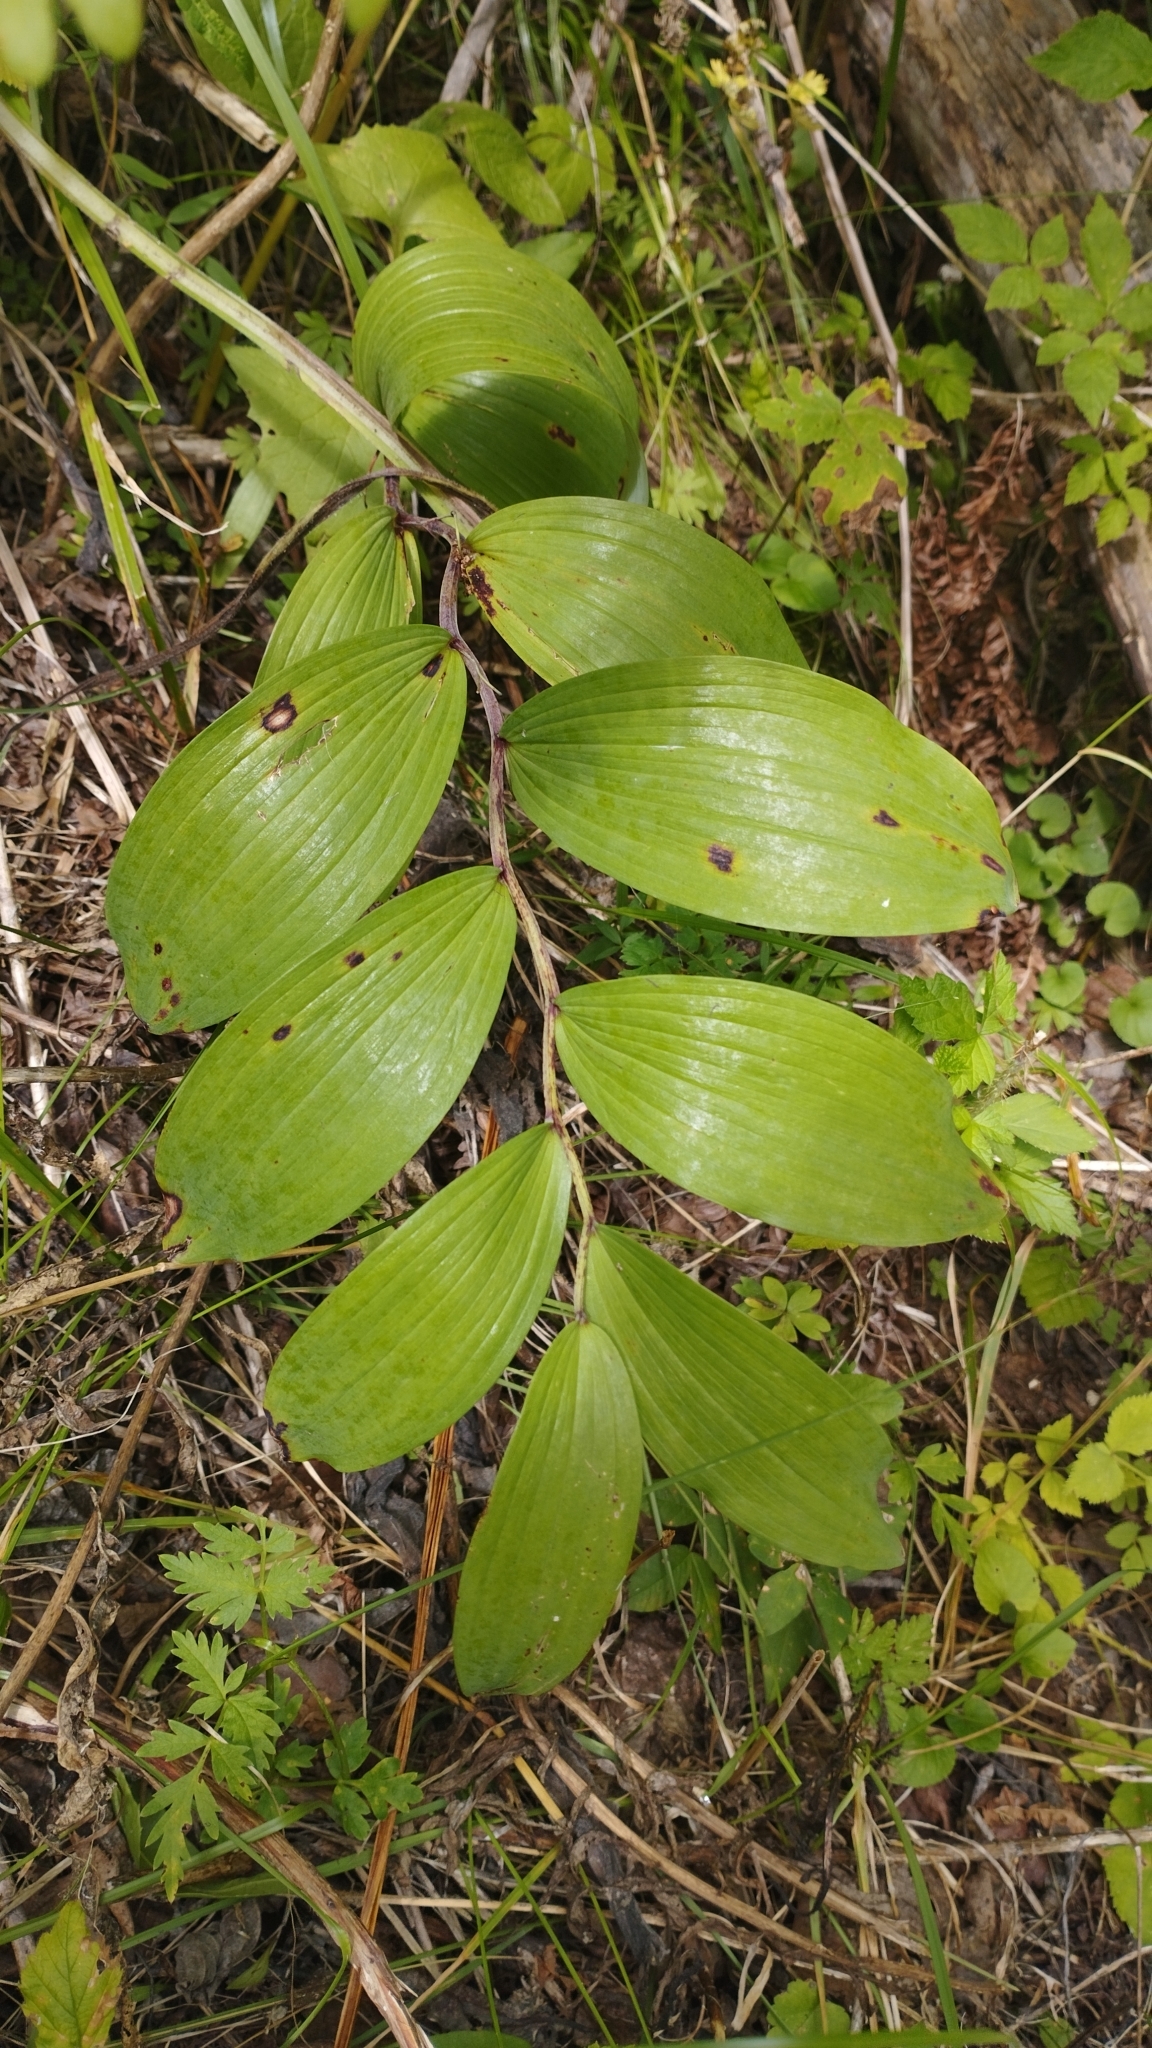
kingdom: Plantae
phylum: Tracheophyta
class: Liliopsida
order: Asparagales
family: Asparagaceae
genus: Polygonatum
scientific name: Polygonatum odoratum
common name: Angular solomon's-seal
